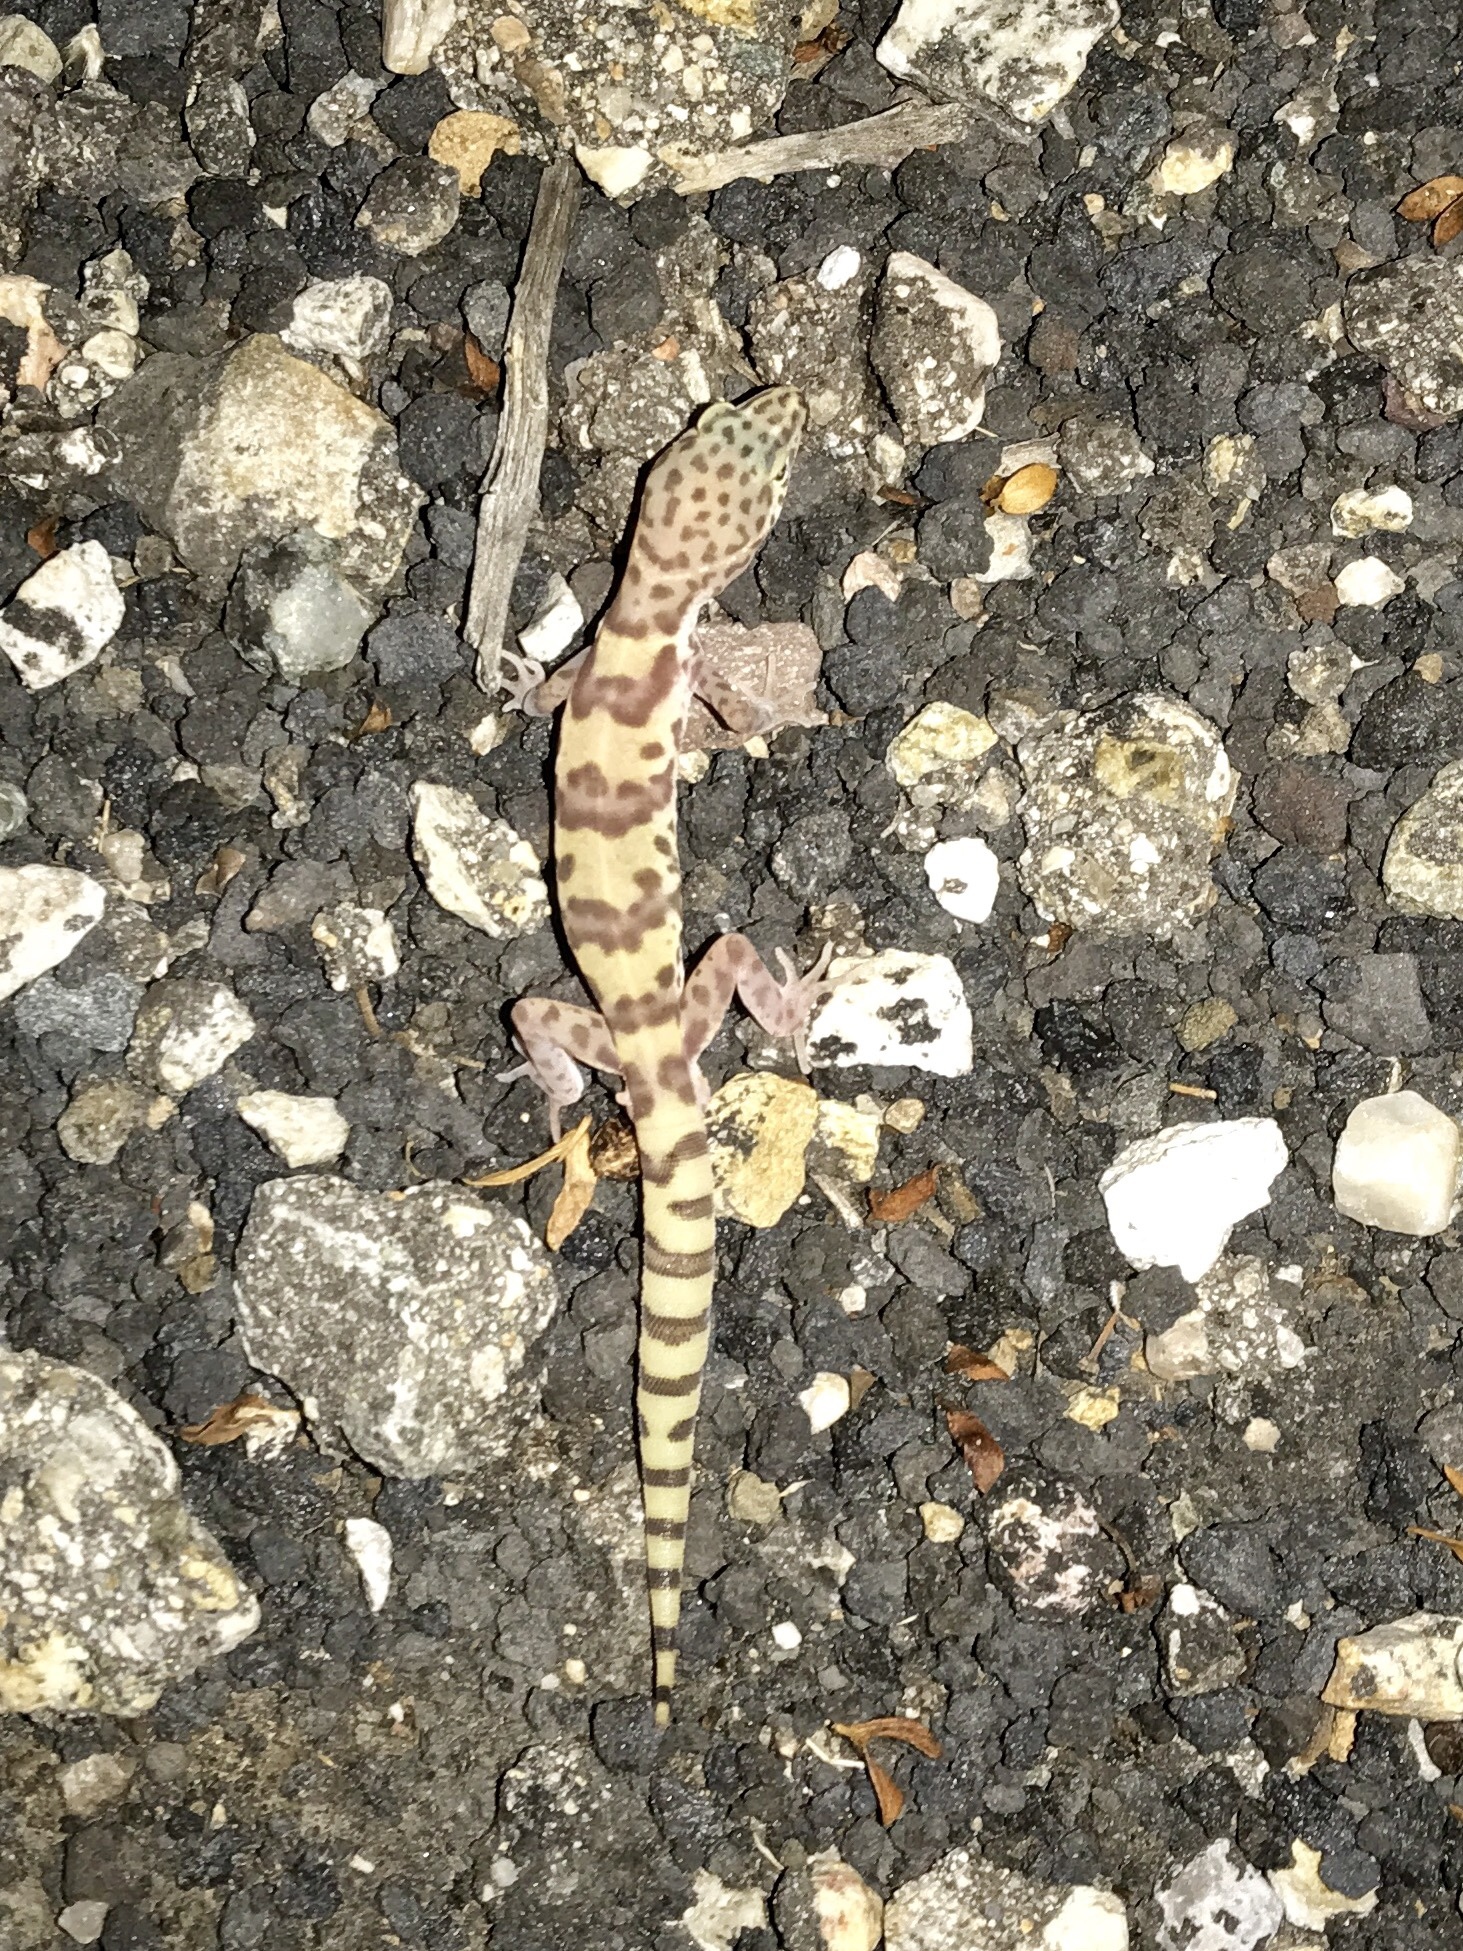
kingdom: Animalia
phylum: Chordata
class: Squamata
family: Eublepharidae
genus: Coleonyx
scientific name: Coleonyx variegatus
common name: Western banded gecko
